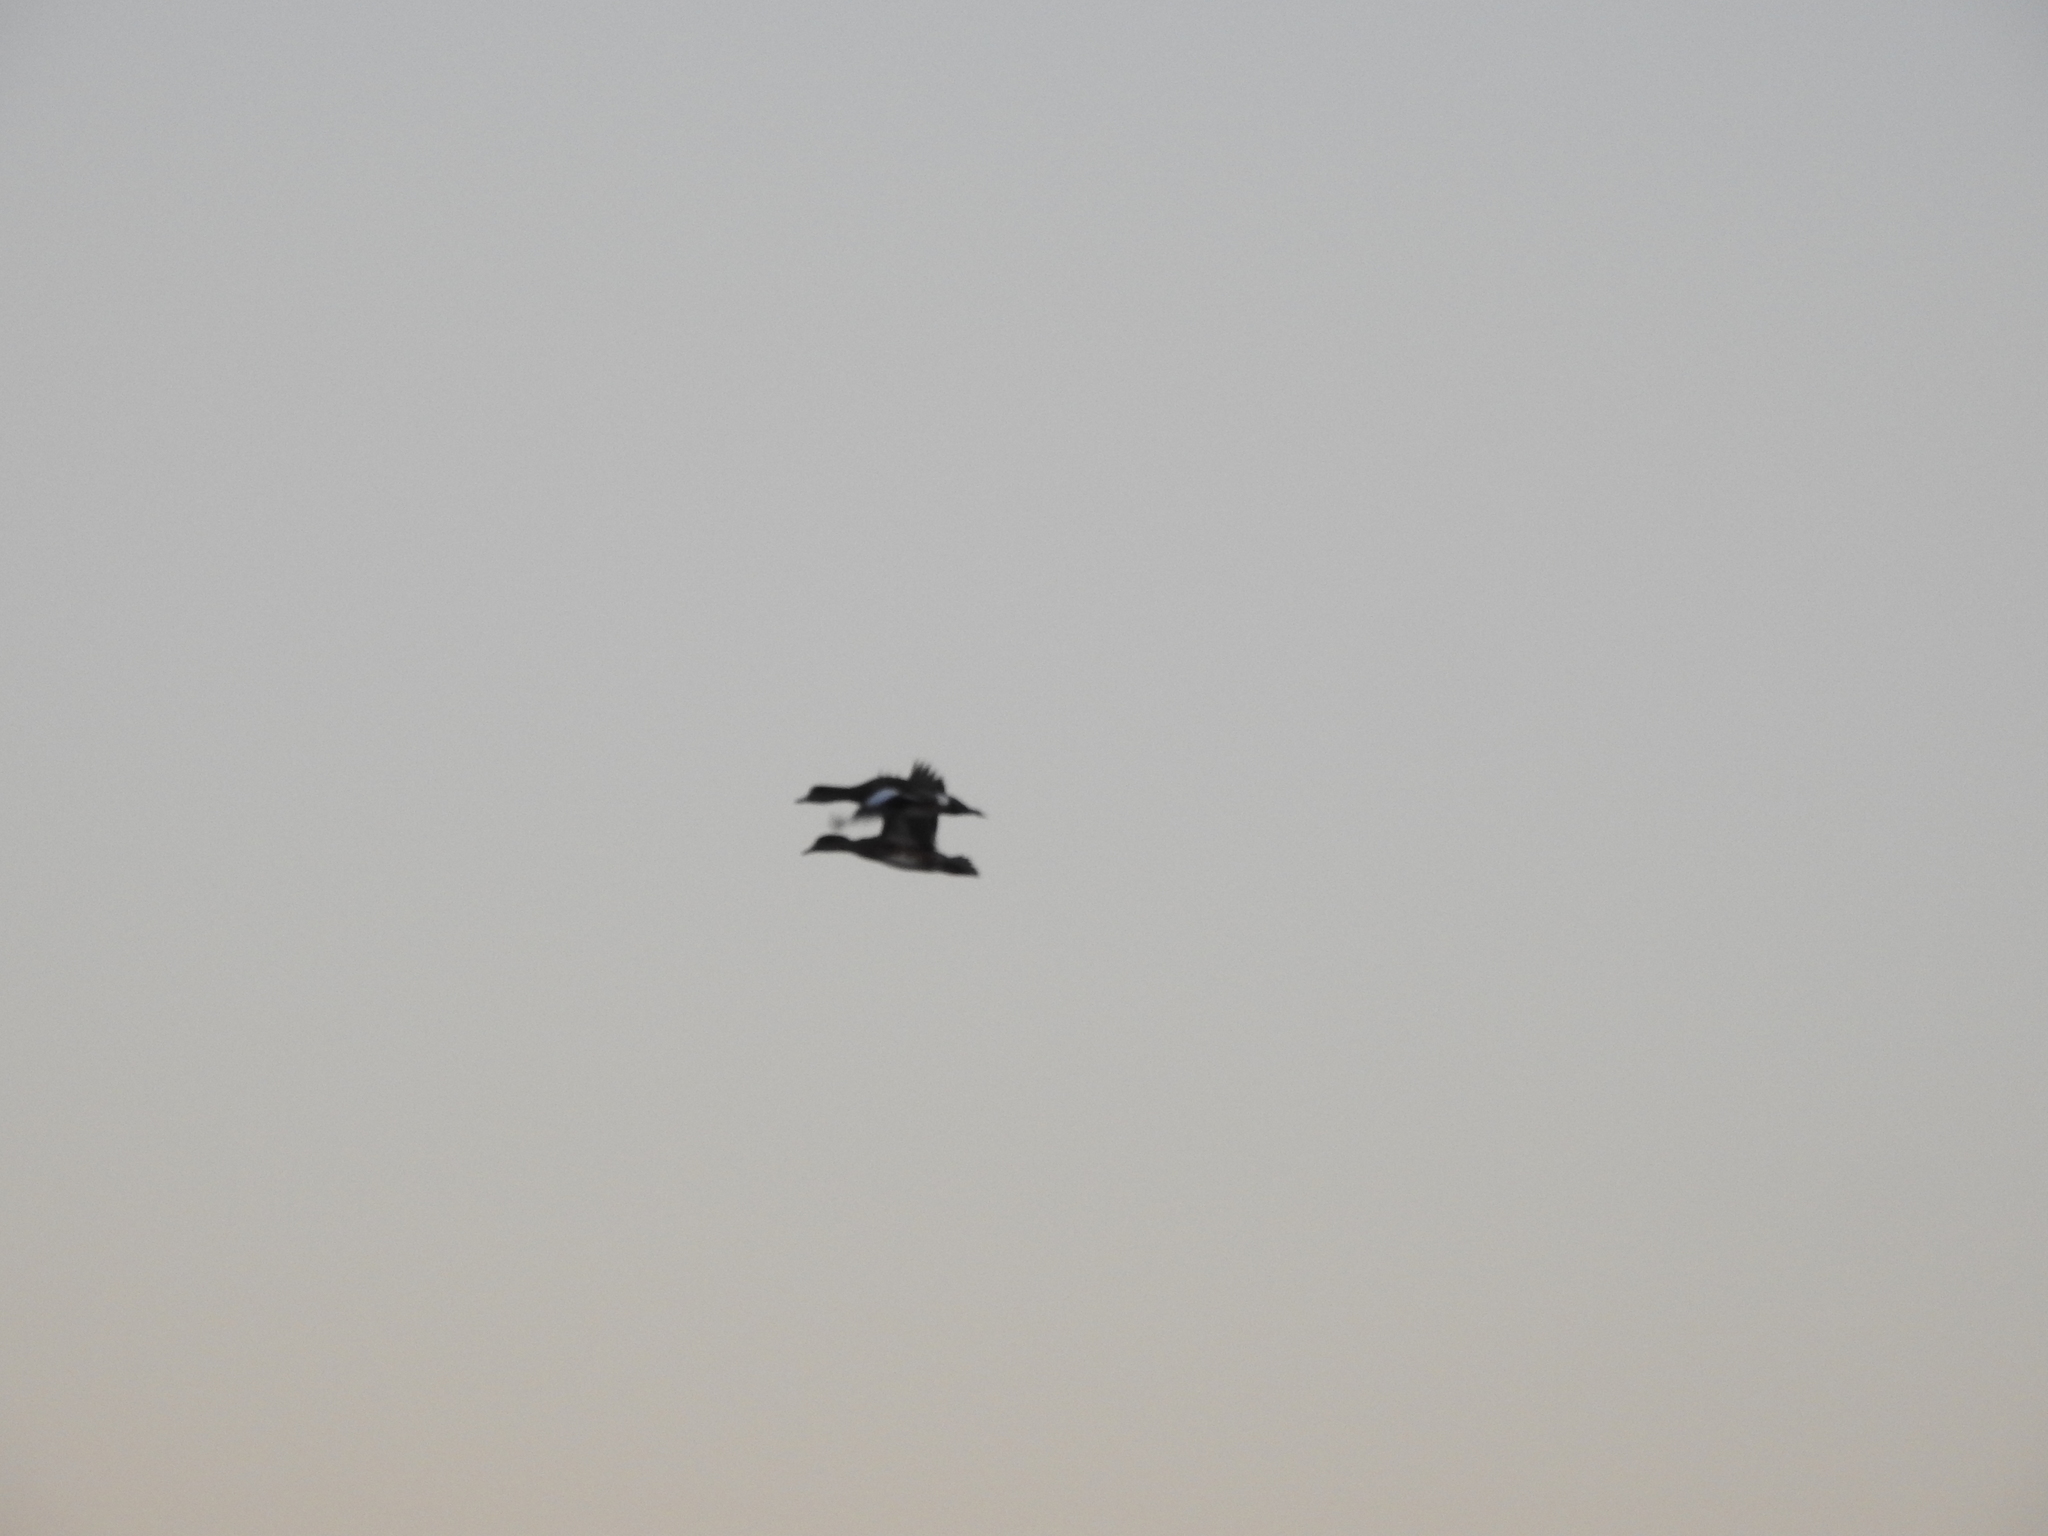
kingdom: Animalia
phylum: Chordata
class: Aves
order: Anseriformes
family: Anatidae
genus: Mareca
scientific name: Mareca americana
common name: American wigeon
